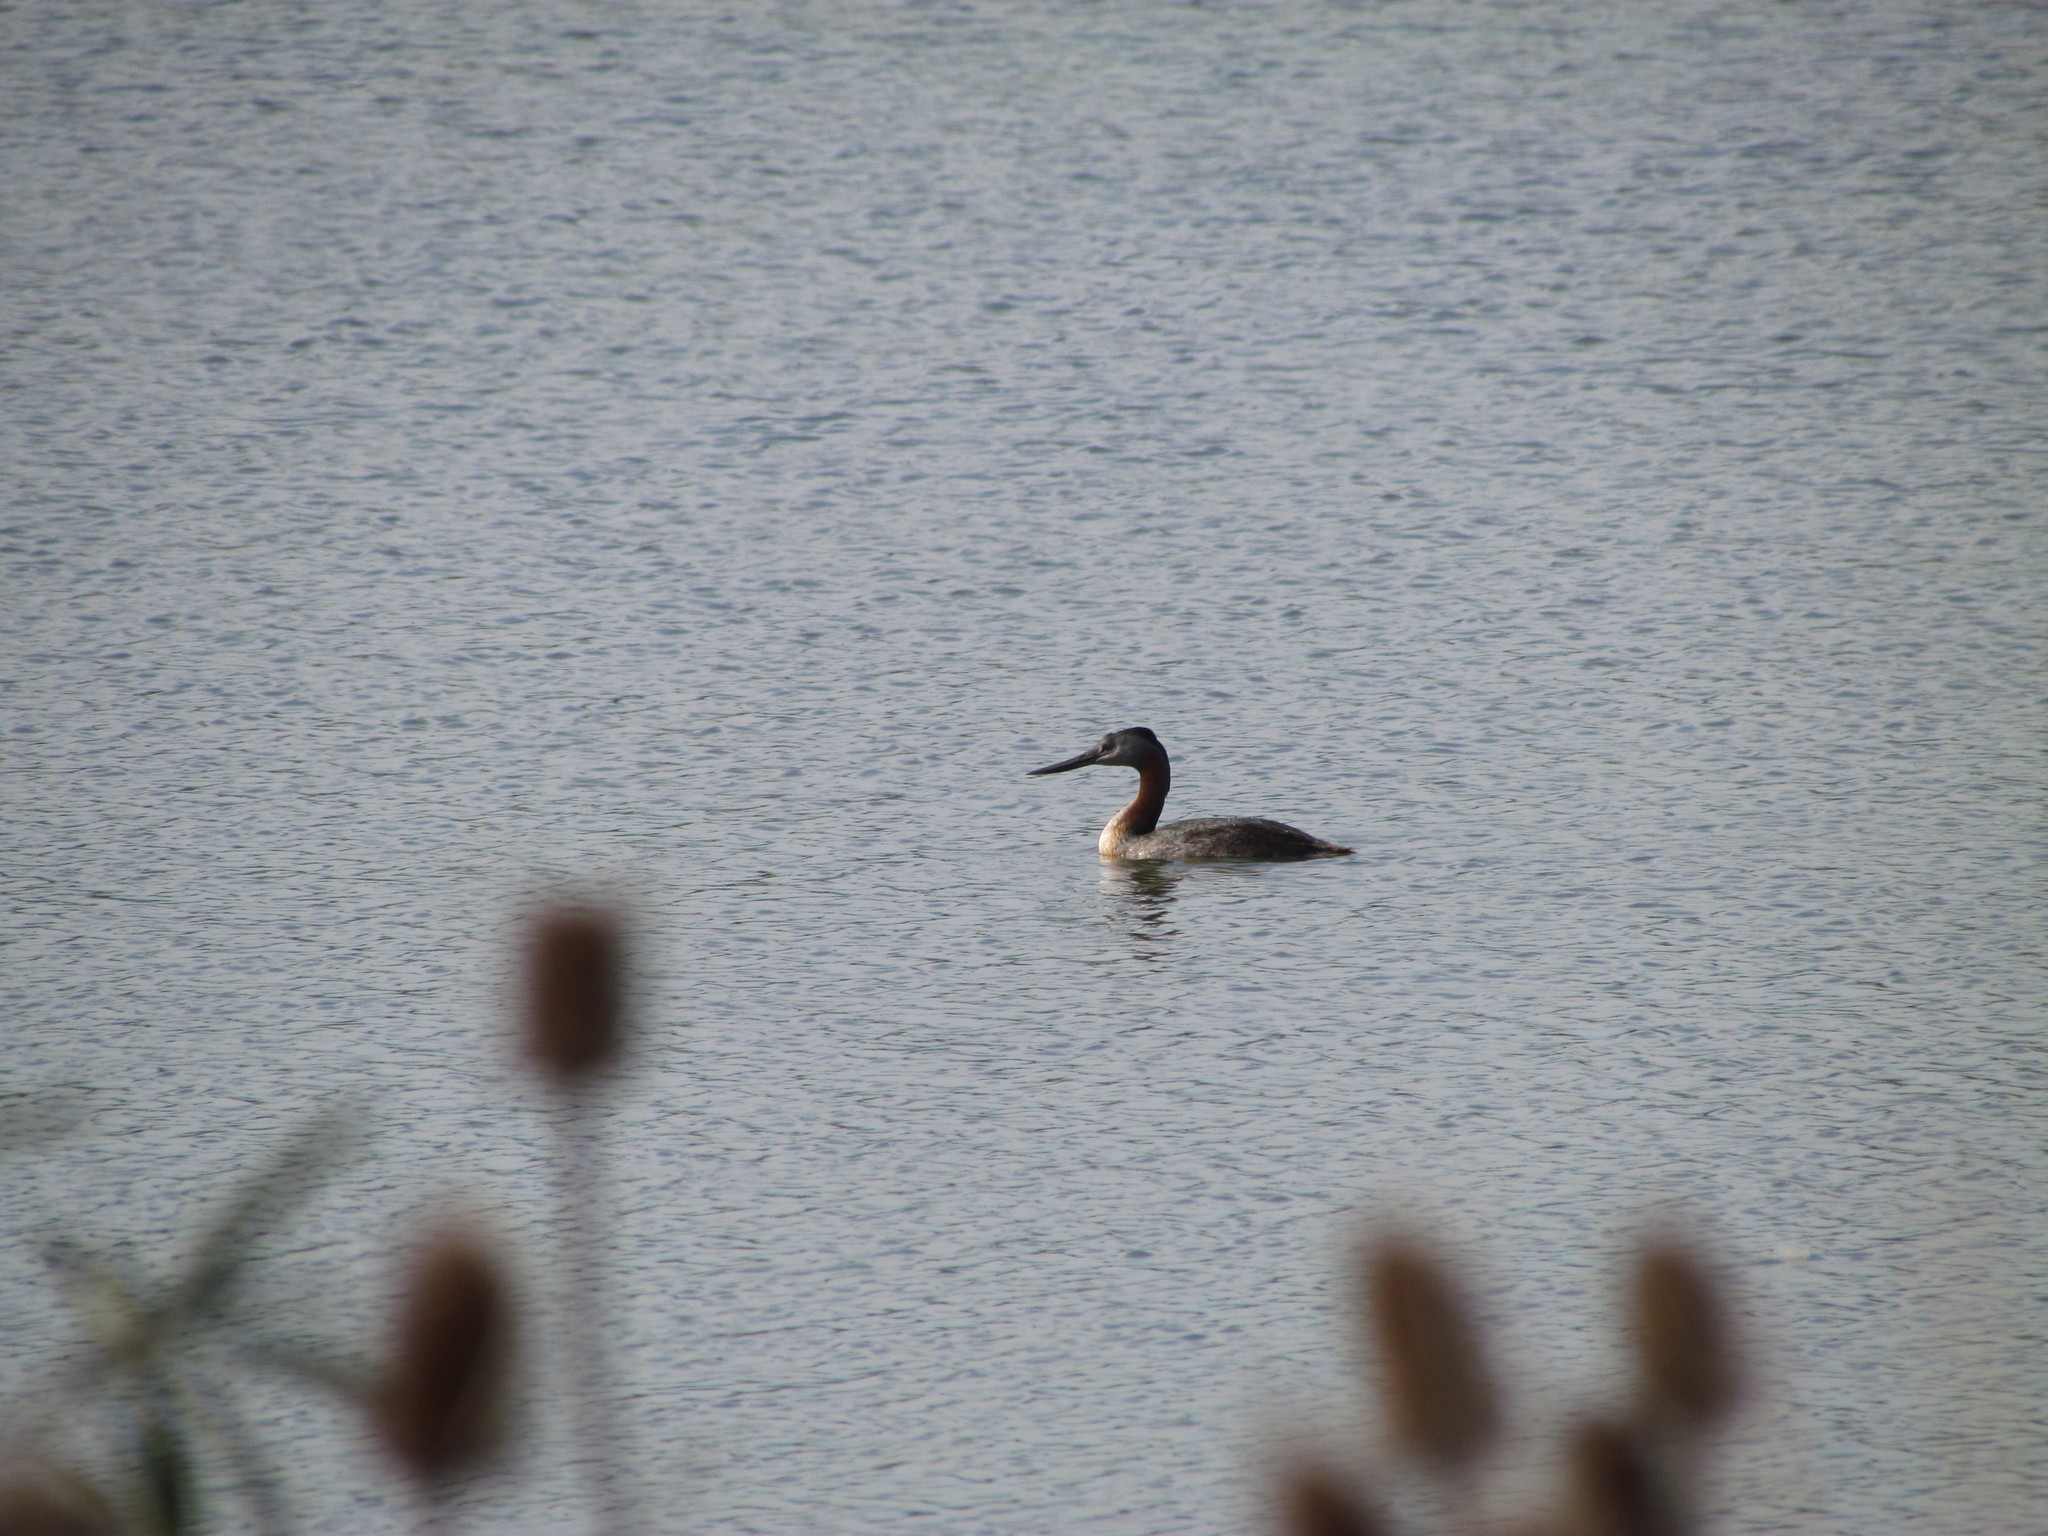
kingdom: Animalia
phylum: Chordata
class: Aves
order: Podicipediformes
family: Podicipedidae
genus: Podiceps
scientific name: Podiceps major
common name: Great grebe
